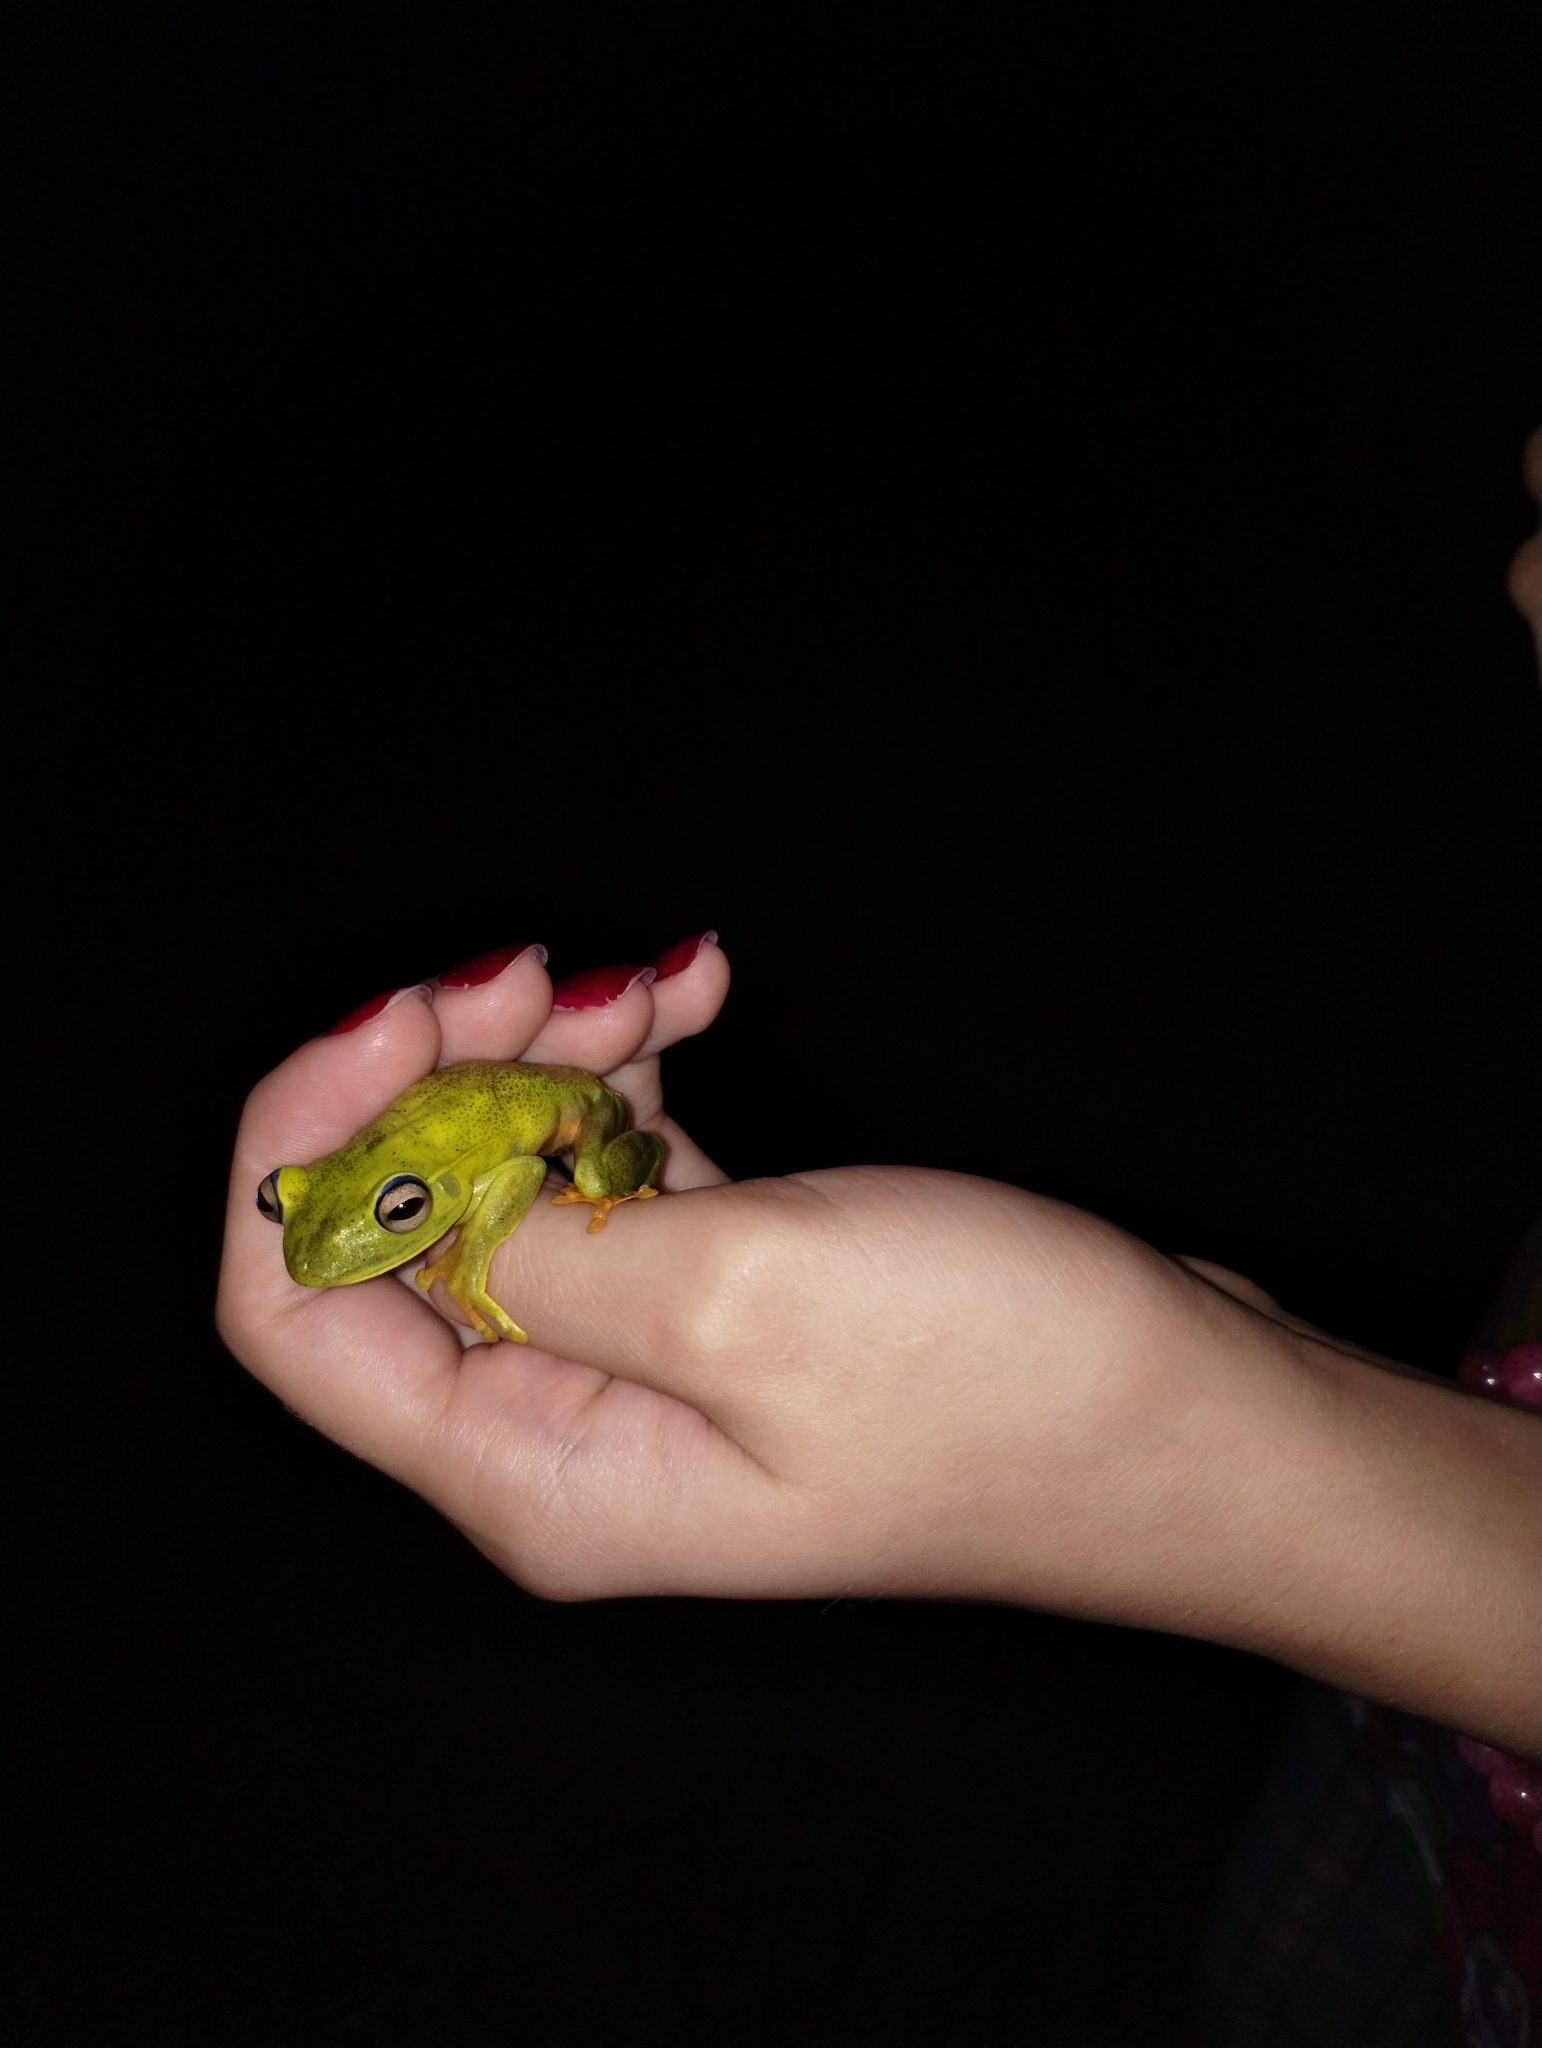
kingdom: Animalia
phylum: Chordata
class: Amphibia
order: Anura
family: Hylidae
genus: Boana
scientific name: Boana albomarginata
